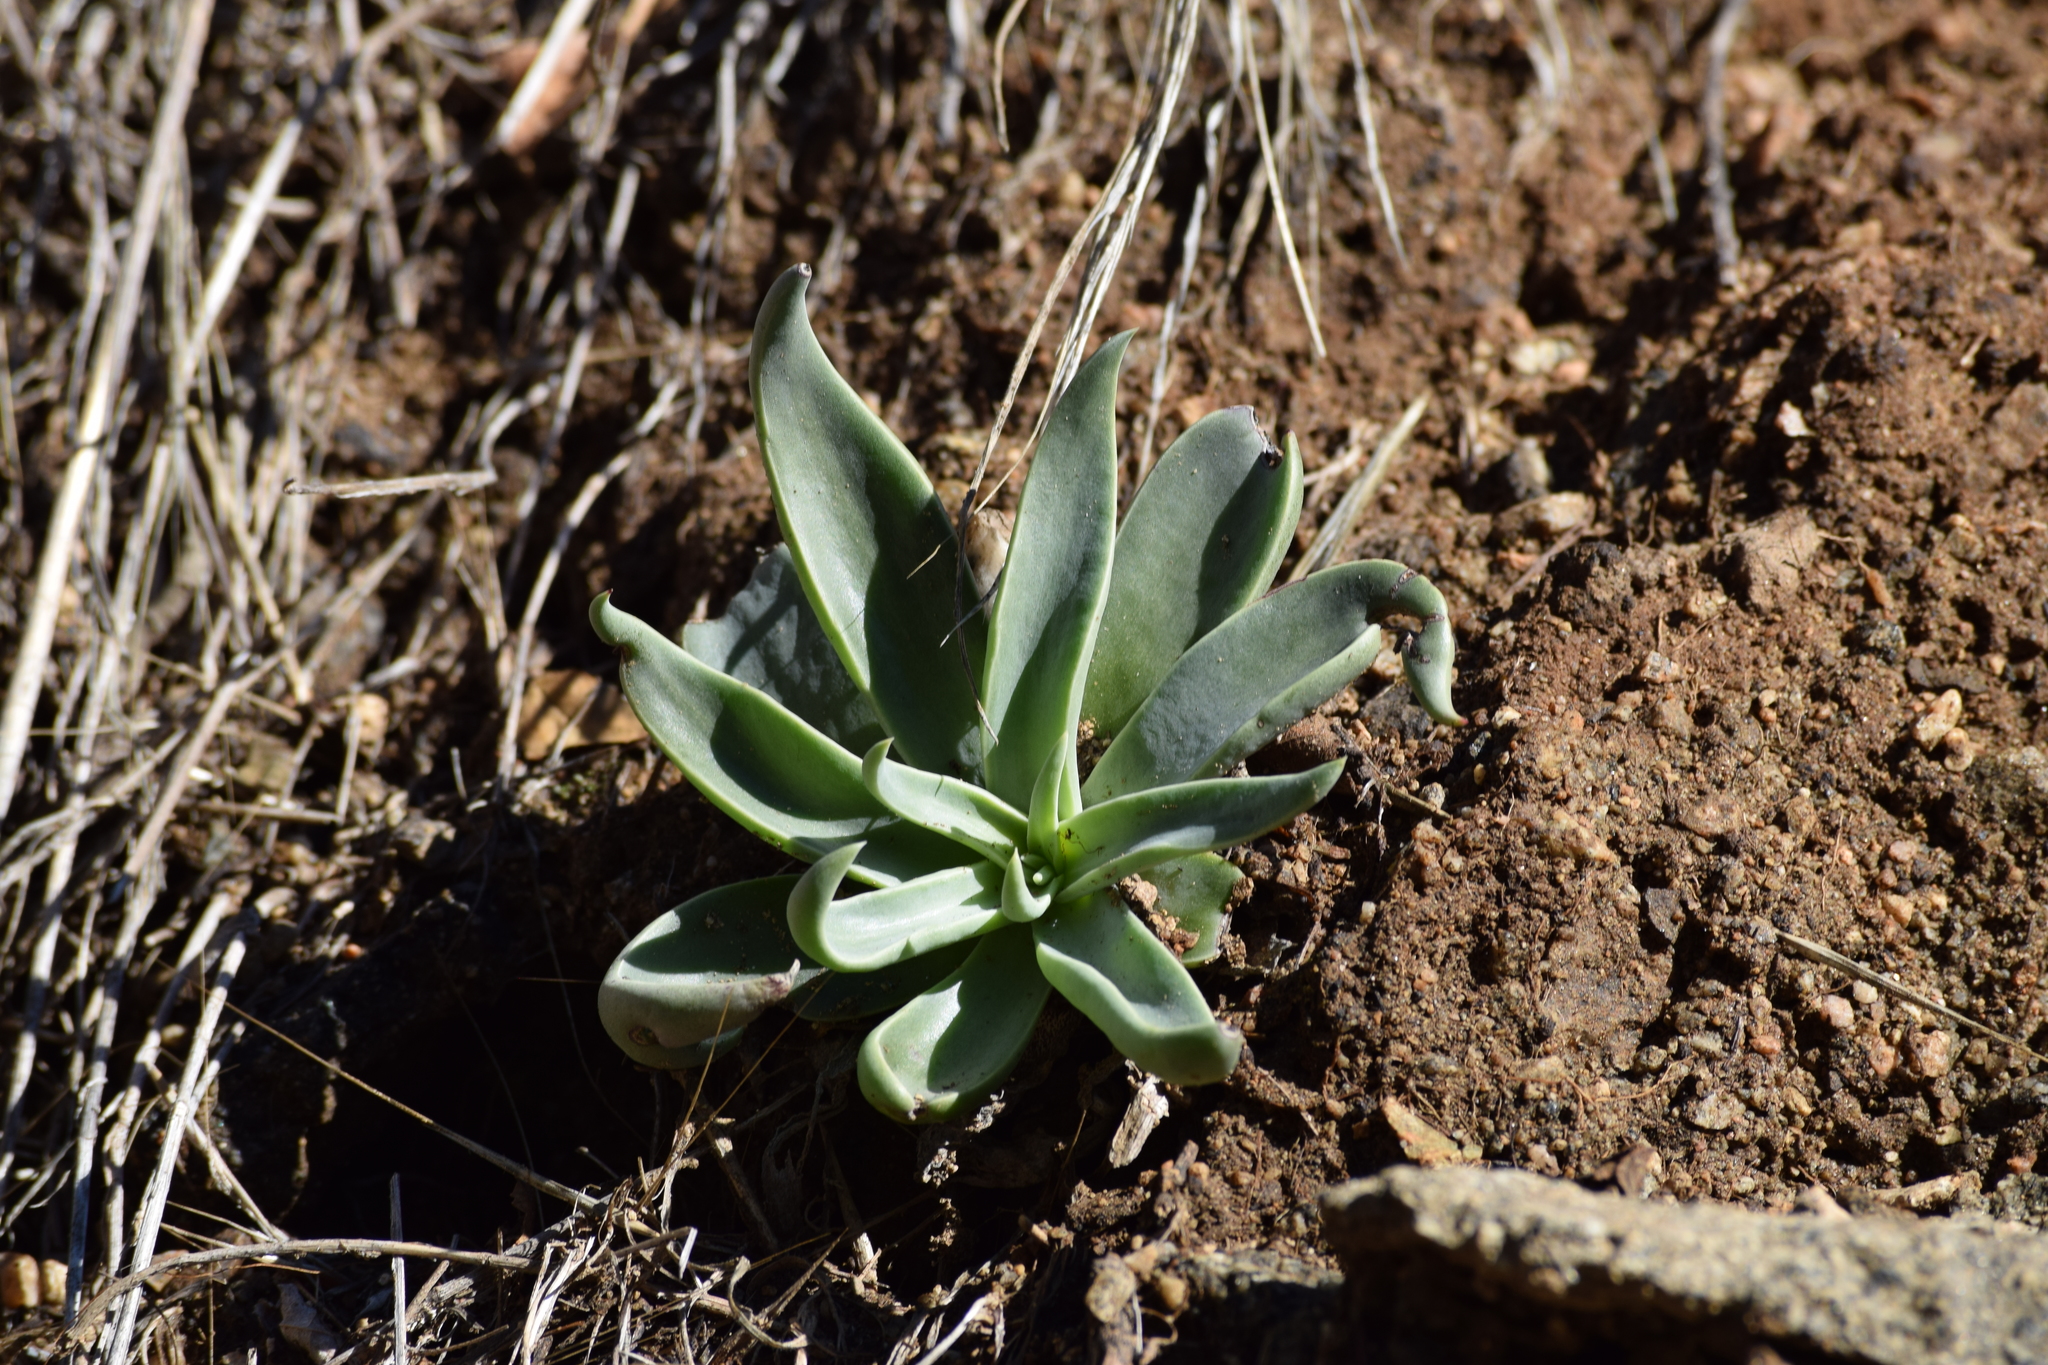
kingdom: Plantae
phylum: Tracheophyta
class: Magnoliopsida
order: Saxifragales
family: Crassulaceae
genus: Dudleya
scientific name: Dudleya lanceolata
